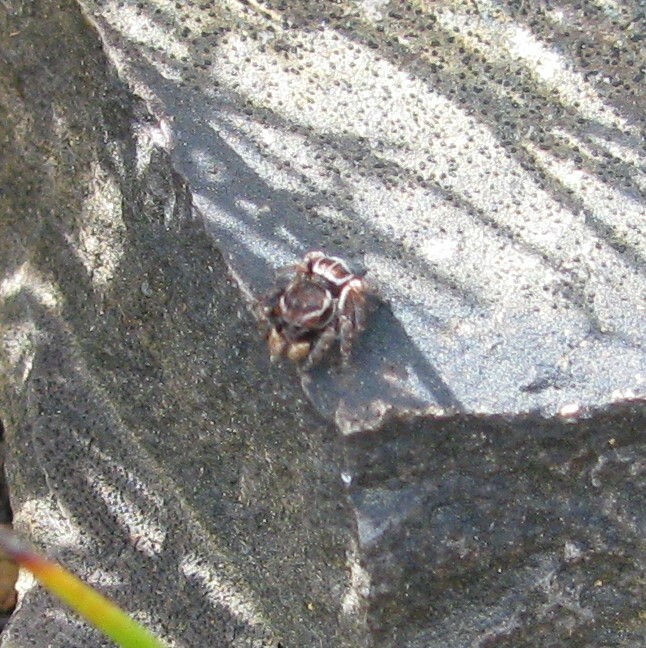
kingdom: Animalia
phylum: Arthropoda
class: Arachnida
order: Araneae
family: Salticidae
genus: Maratus
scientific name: Maratus proszynskii
